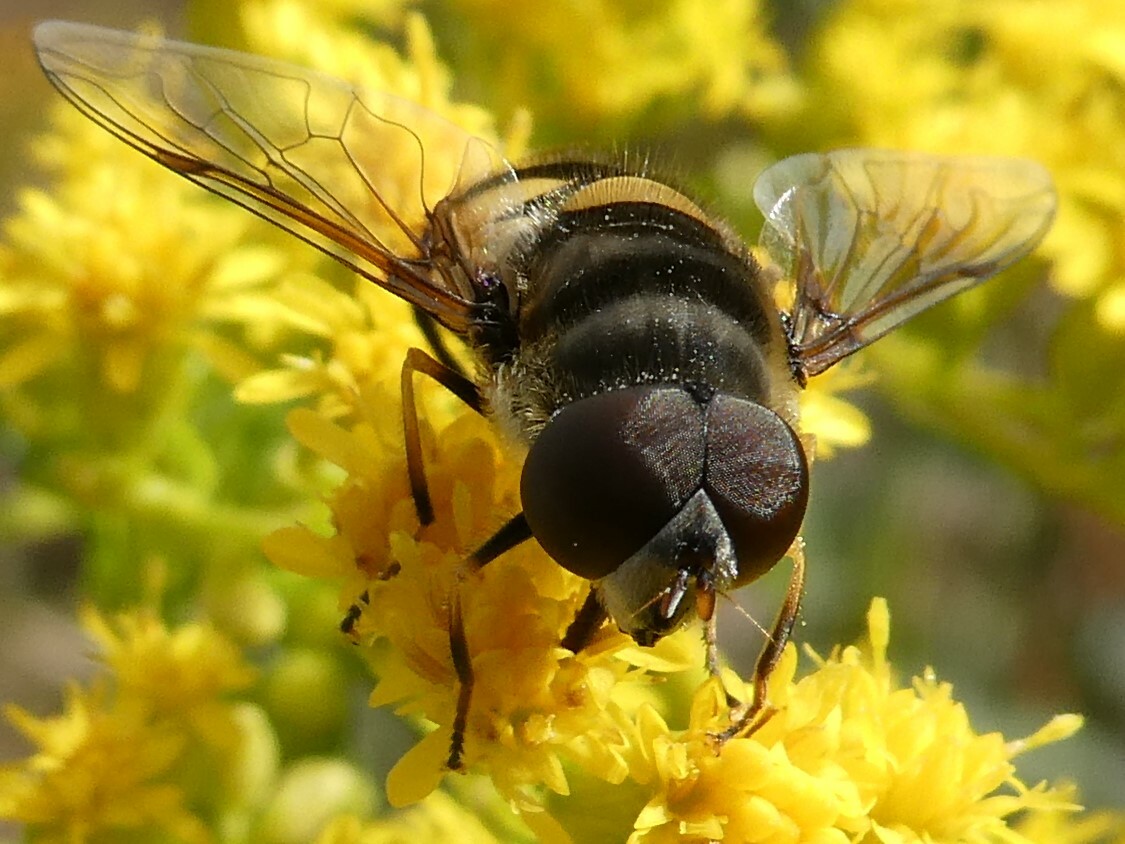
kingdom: Animalia
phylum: Arthropoda
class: Insecta
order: Diptera
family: Syrphidae
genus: Eristalis
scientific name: Eristalis transversa
